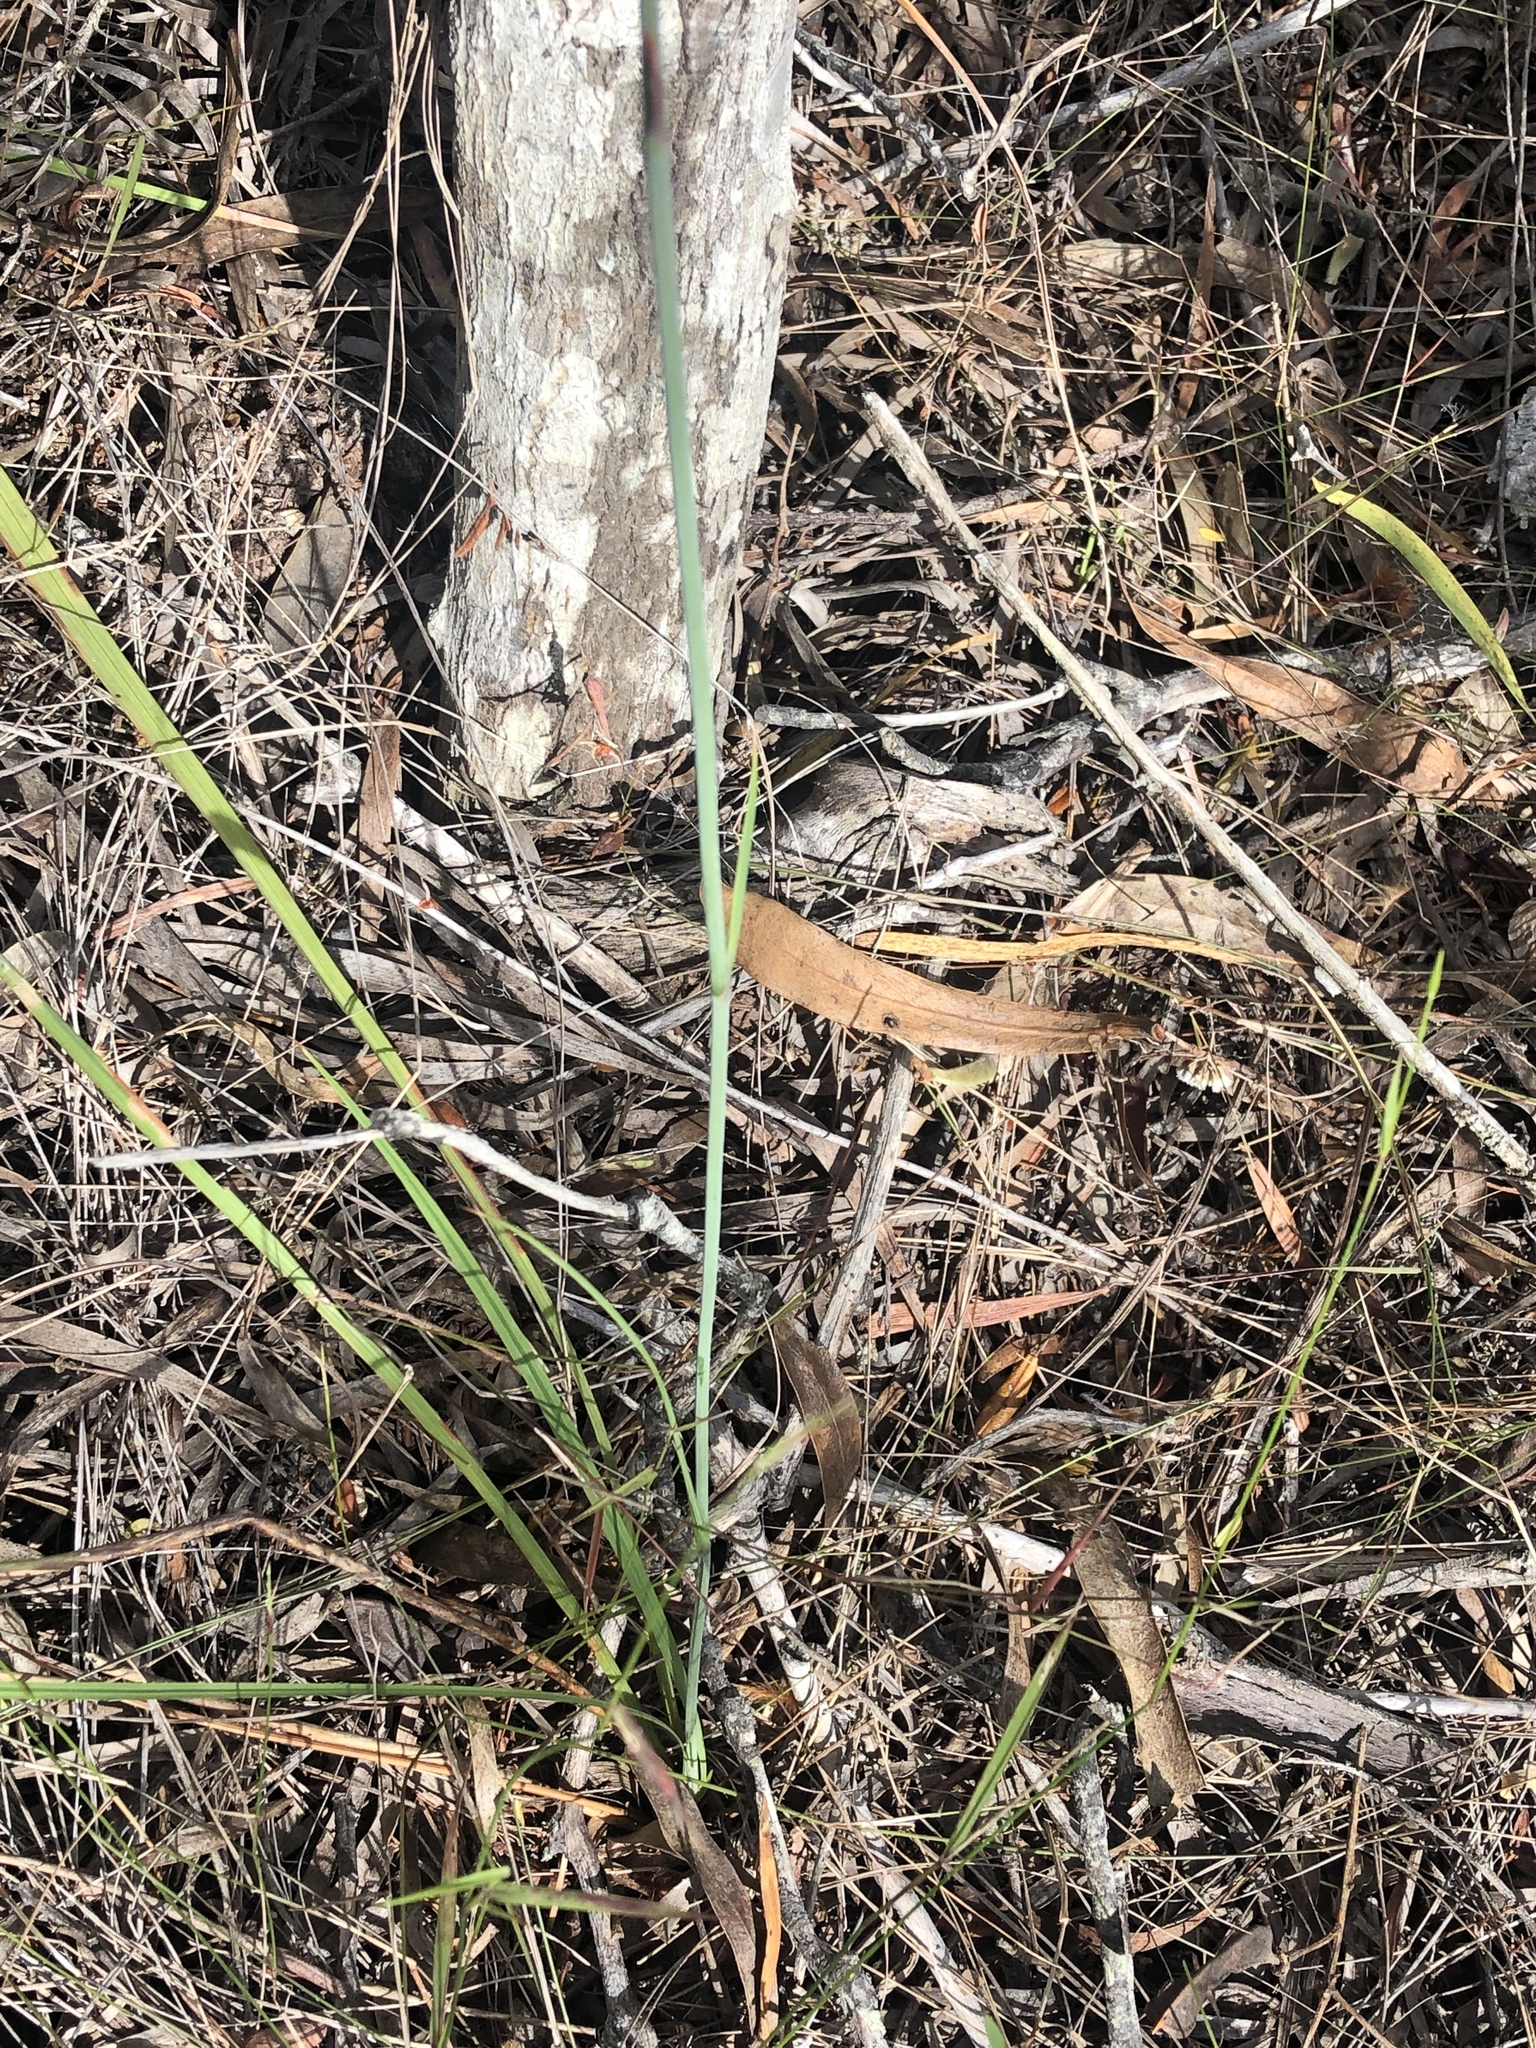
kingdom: Plantae
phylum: Tracheophyta
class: Liliopsida
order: Asparagales
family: Iridaceae
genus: Tritoniopsis
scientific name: Tritoniopsis caffra
